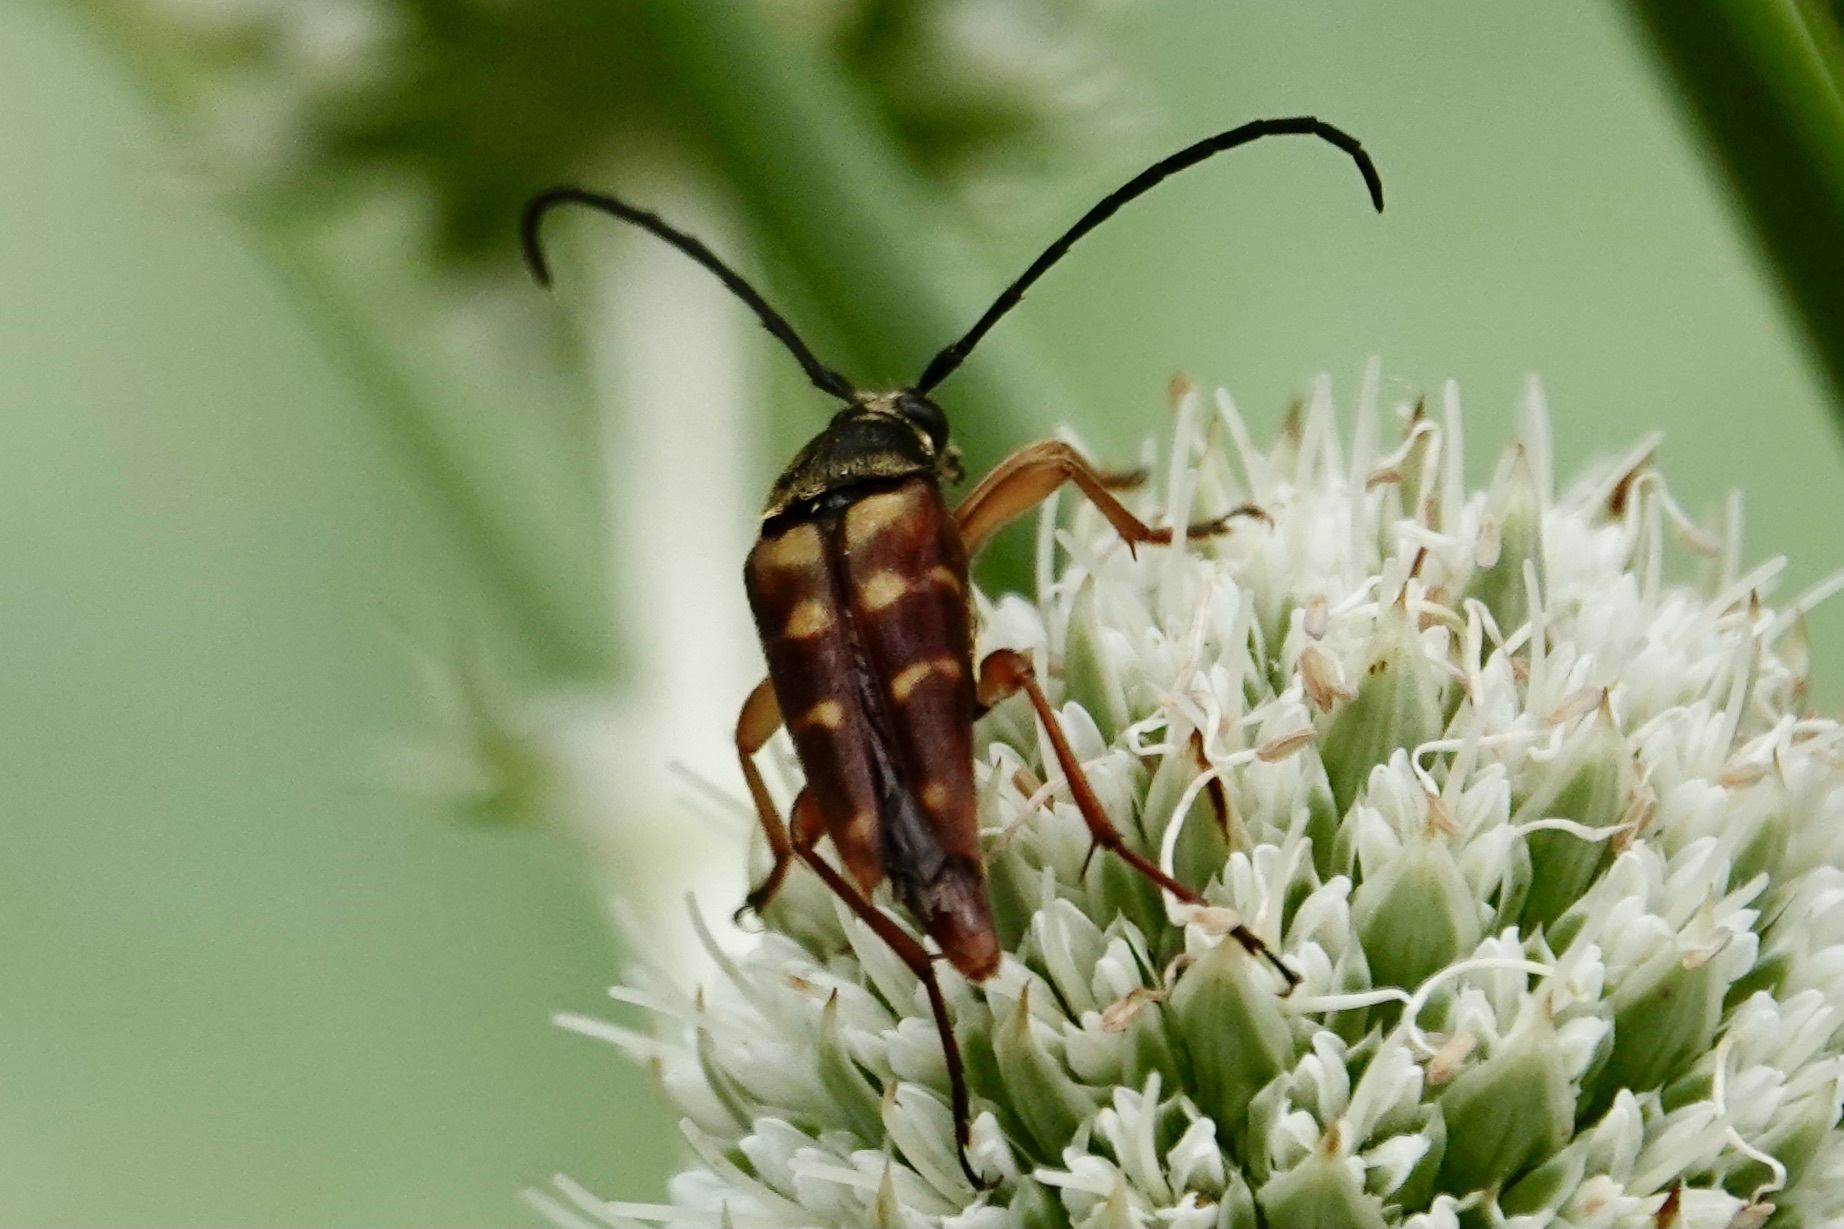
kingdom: Animalia
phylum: Arthropoda
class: Insecta
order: Coleoptera
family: Cerambycidae
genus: Typocerus
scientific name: Typocerus velutinus
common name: Banded longhorn beetle
